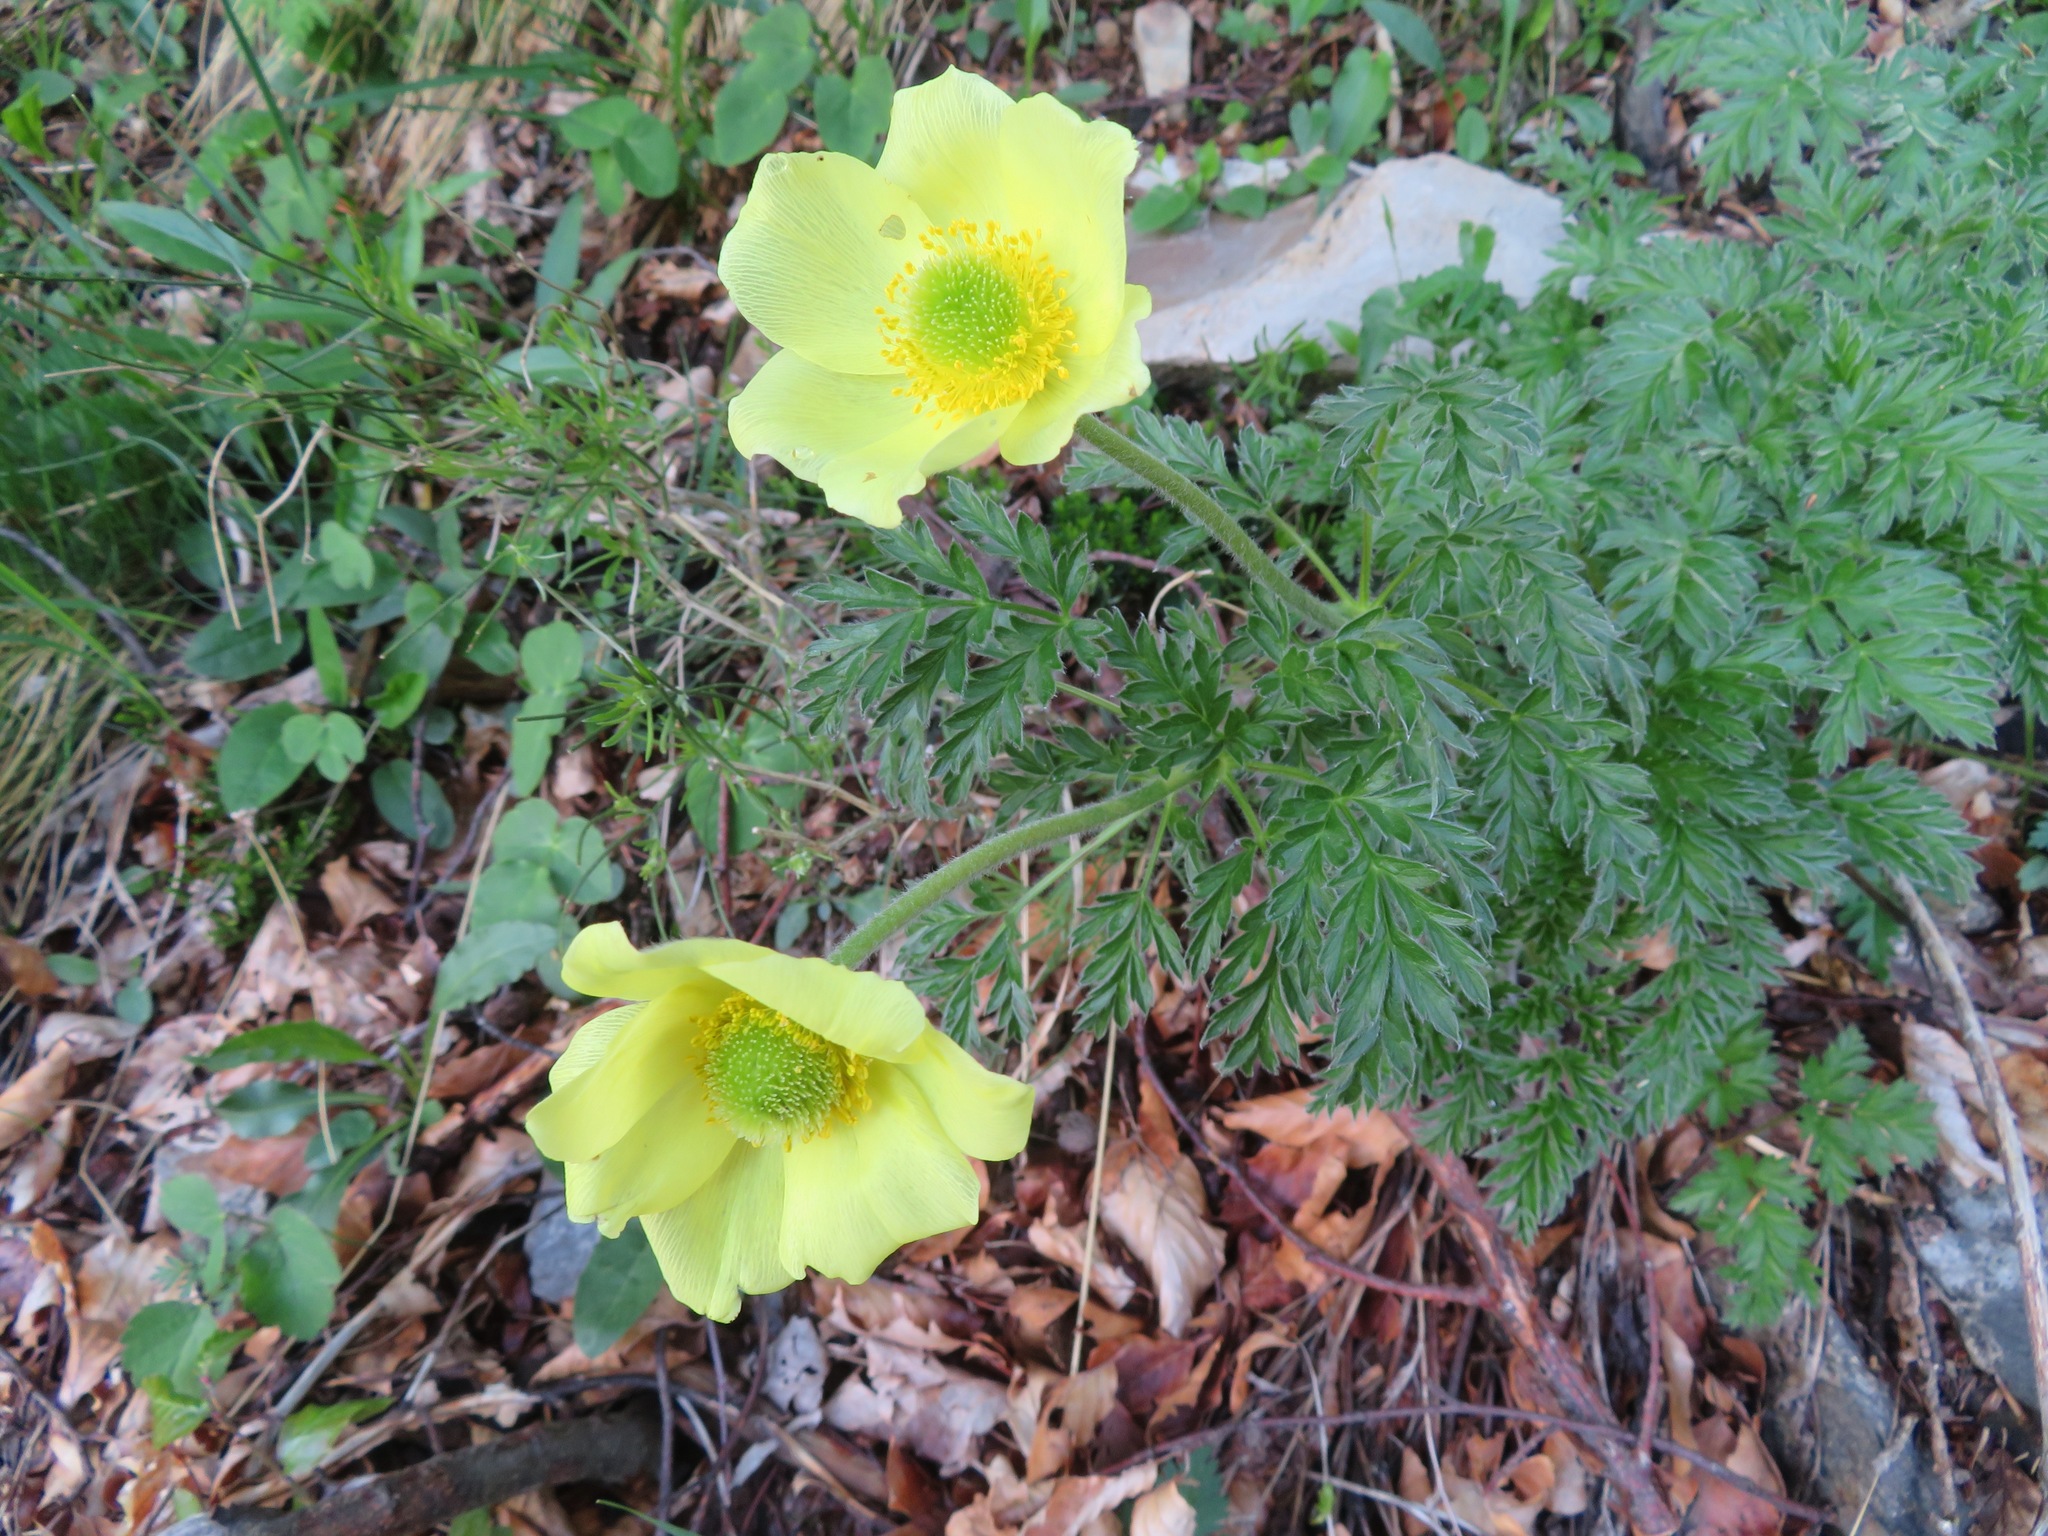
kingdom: Plantae
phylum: Tracheophyta
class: Magnoliopsida
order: Ranunculales
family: Ranunculaceae
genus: Pulsatilla
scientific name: Pulsatilla alpina
